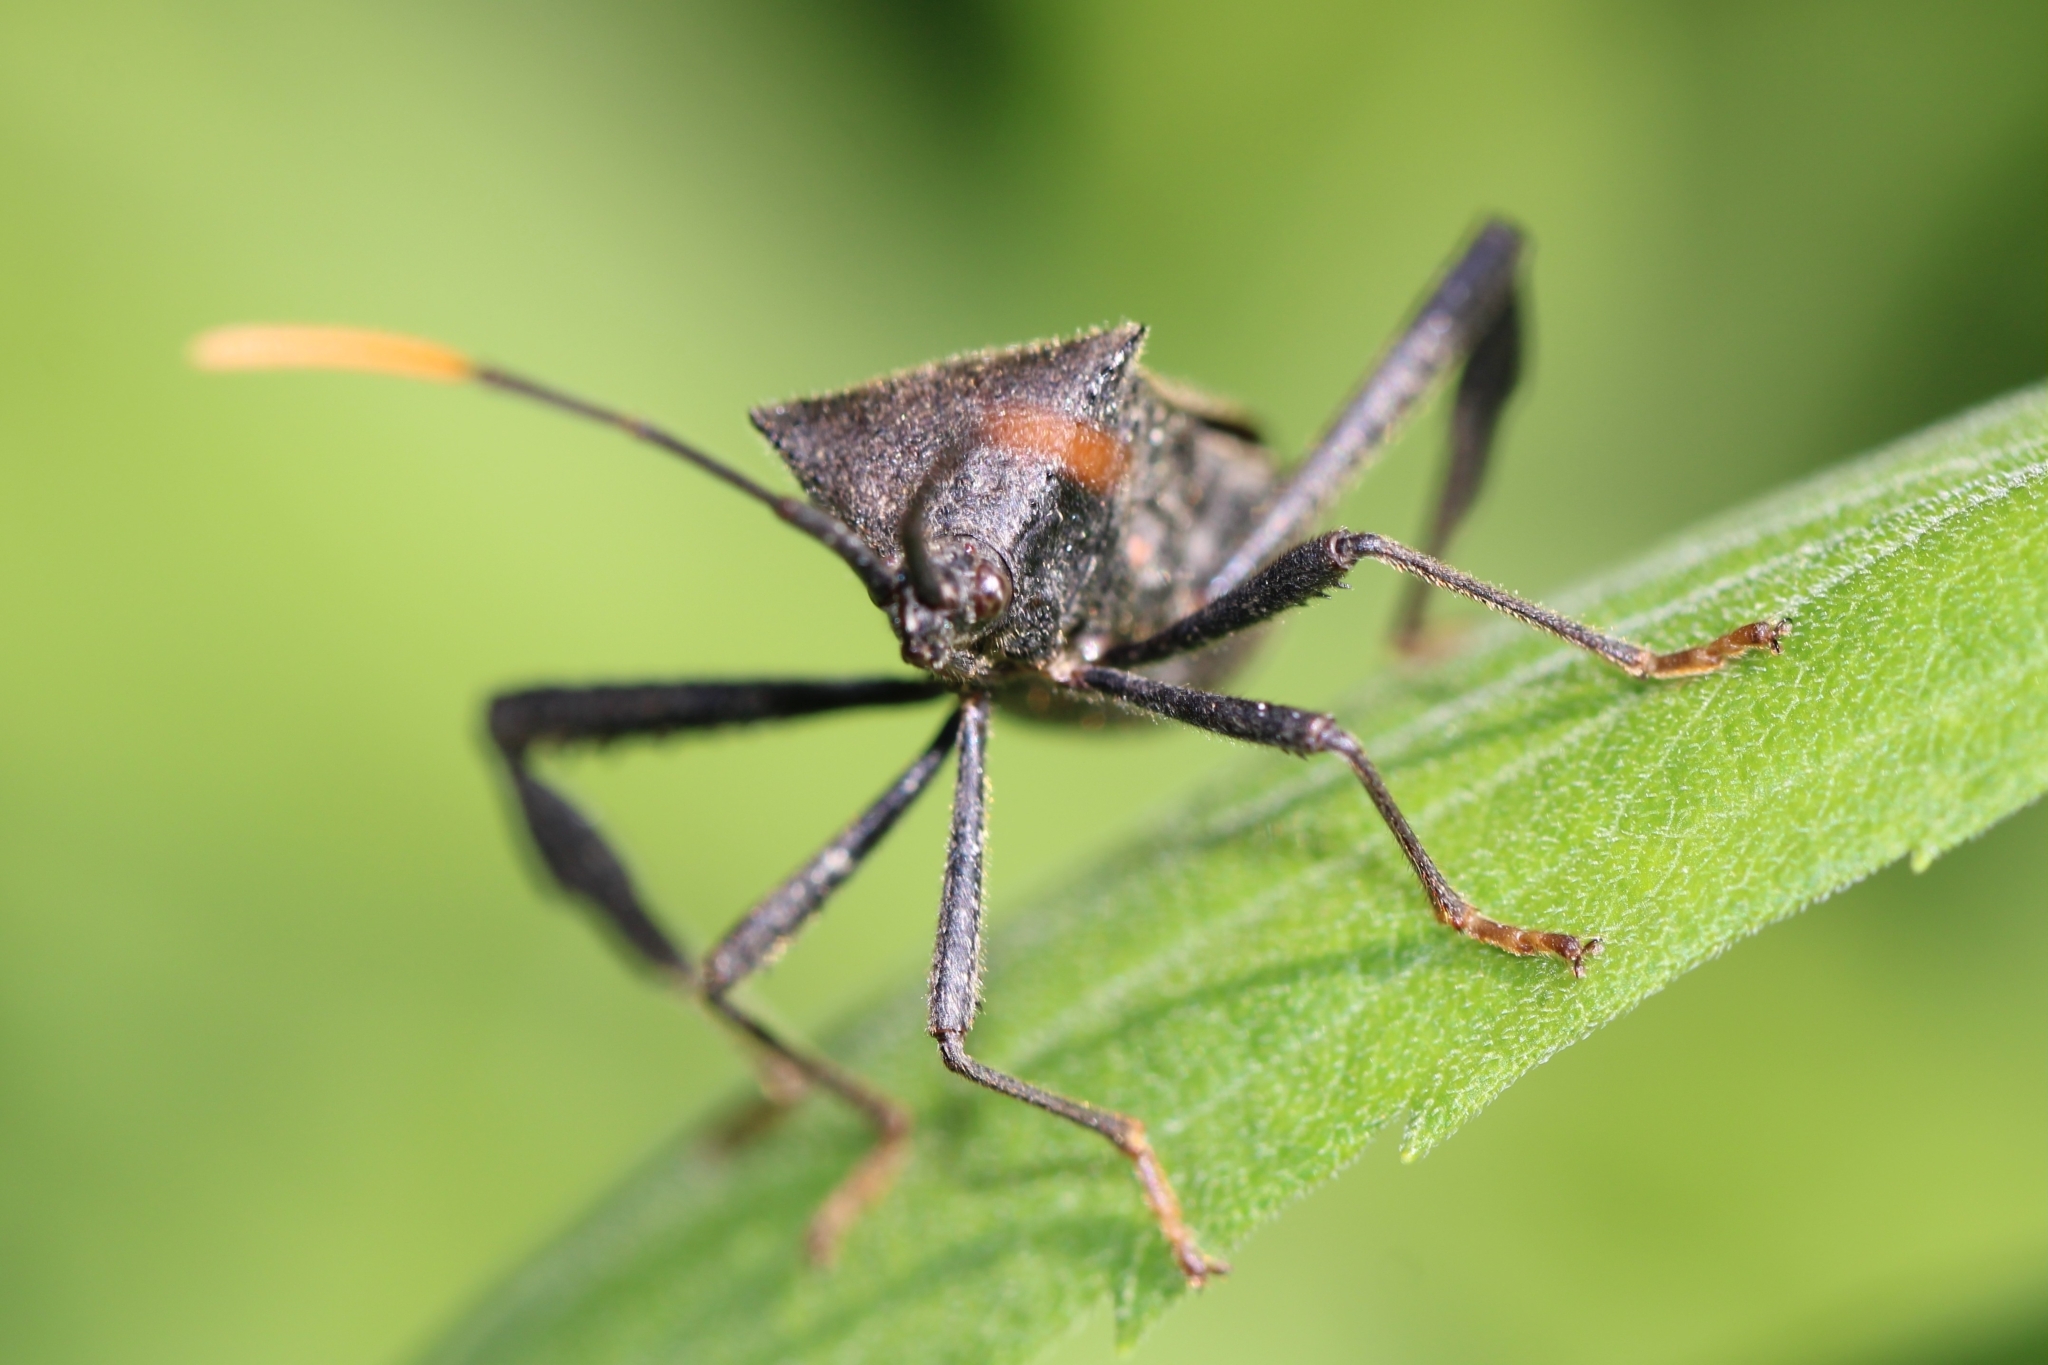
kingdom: Animalia
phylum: Arthropoda
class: Insecta
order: Hemiptera
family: Coreidae
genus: Acanthocephala
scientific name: Acanthocephala terminalis
